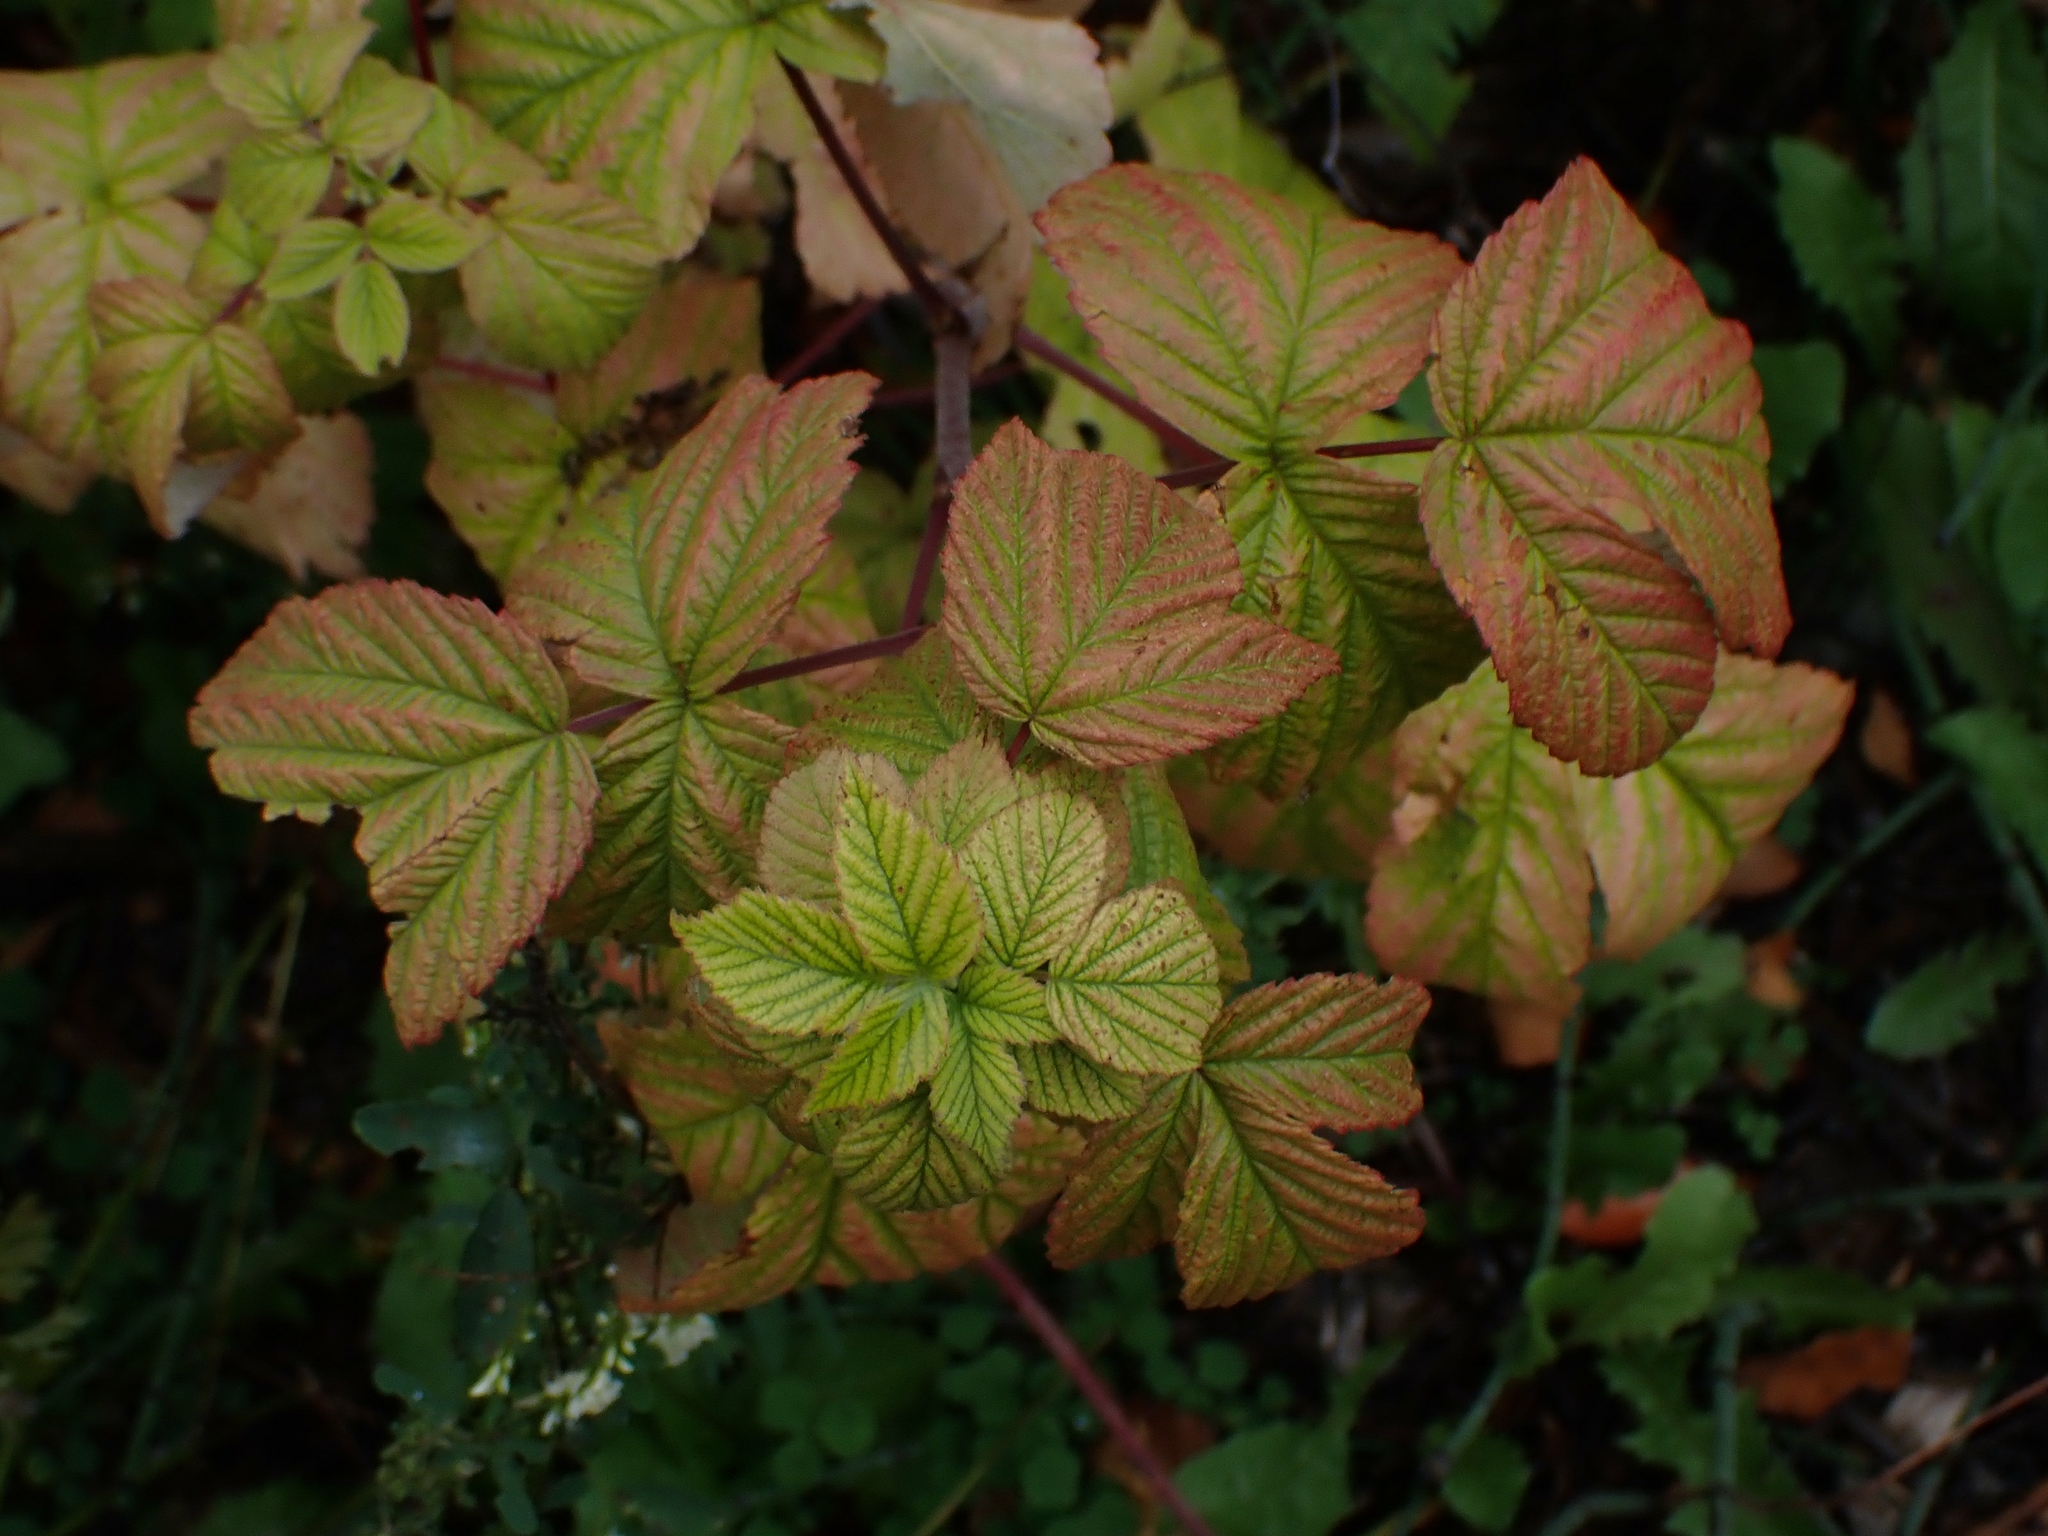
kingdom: Plantae
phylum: Tracheophyta
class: Magnoliopsida
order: Rosales
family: Rosaceae
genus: Rubus
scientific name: Rubus idaeus
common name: Raspberry
